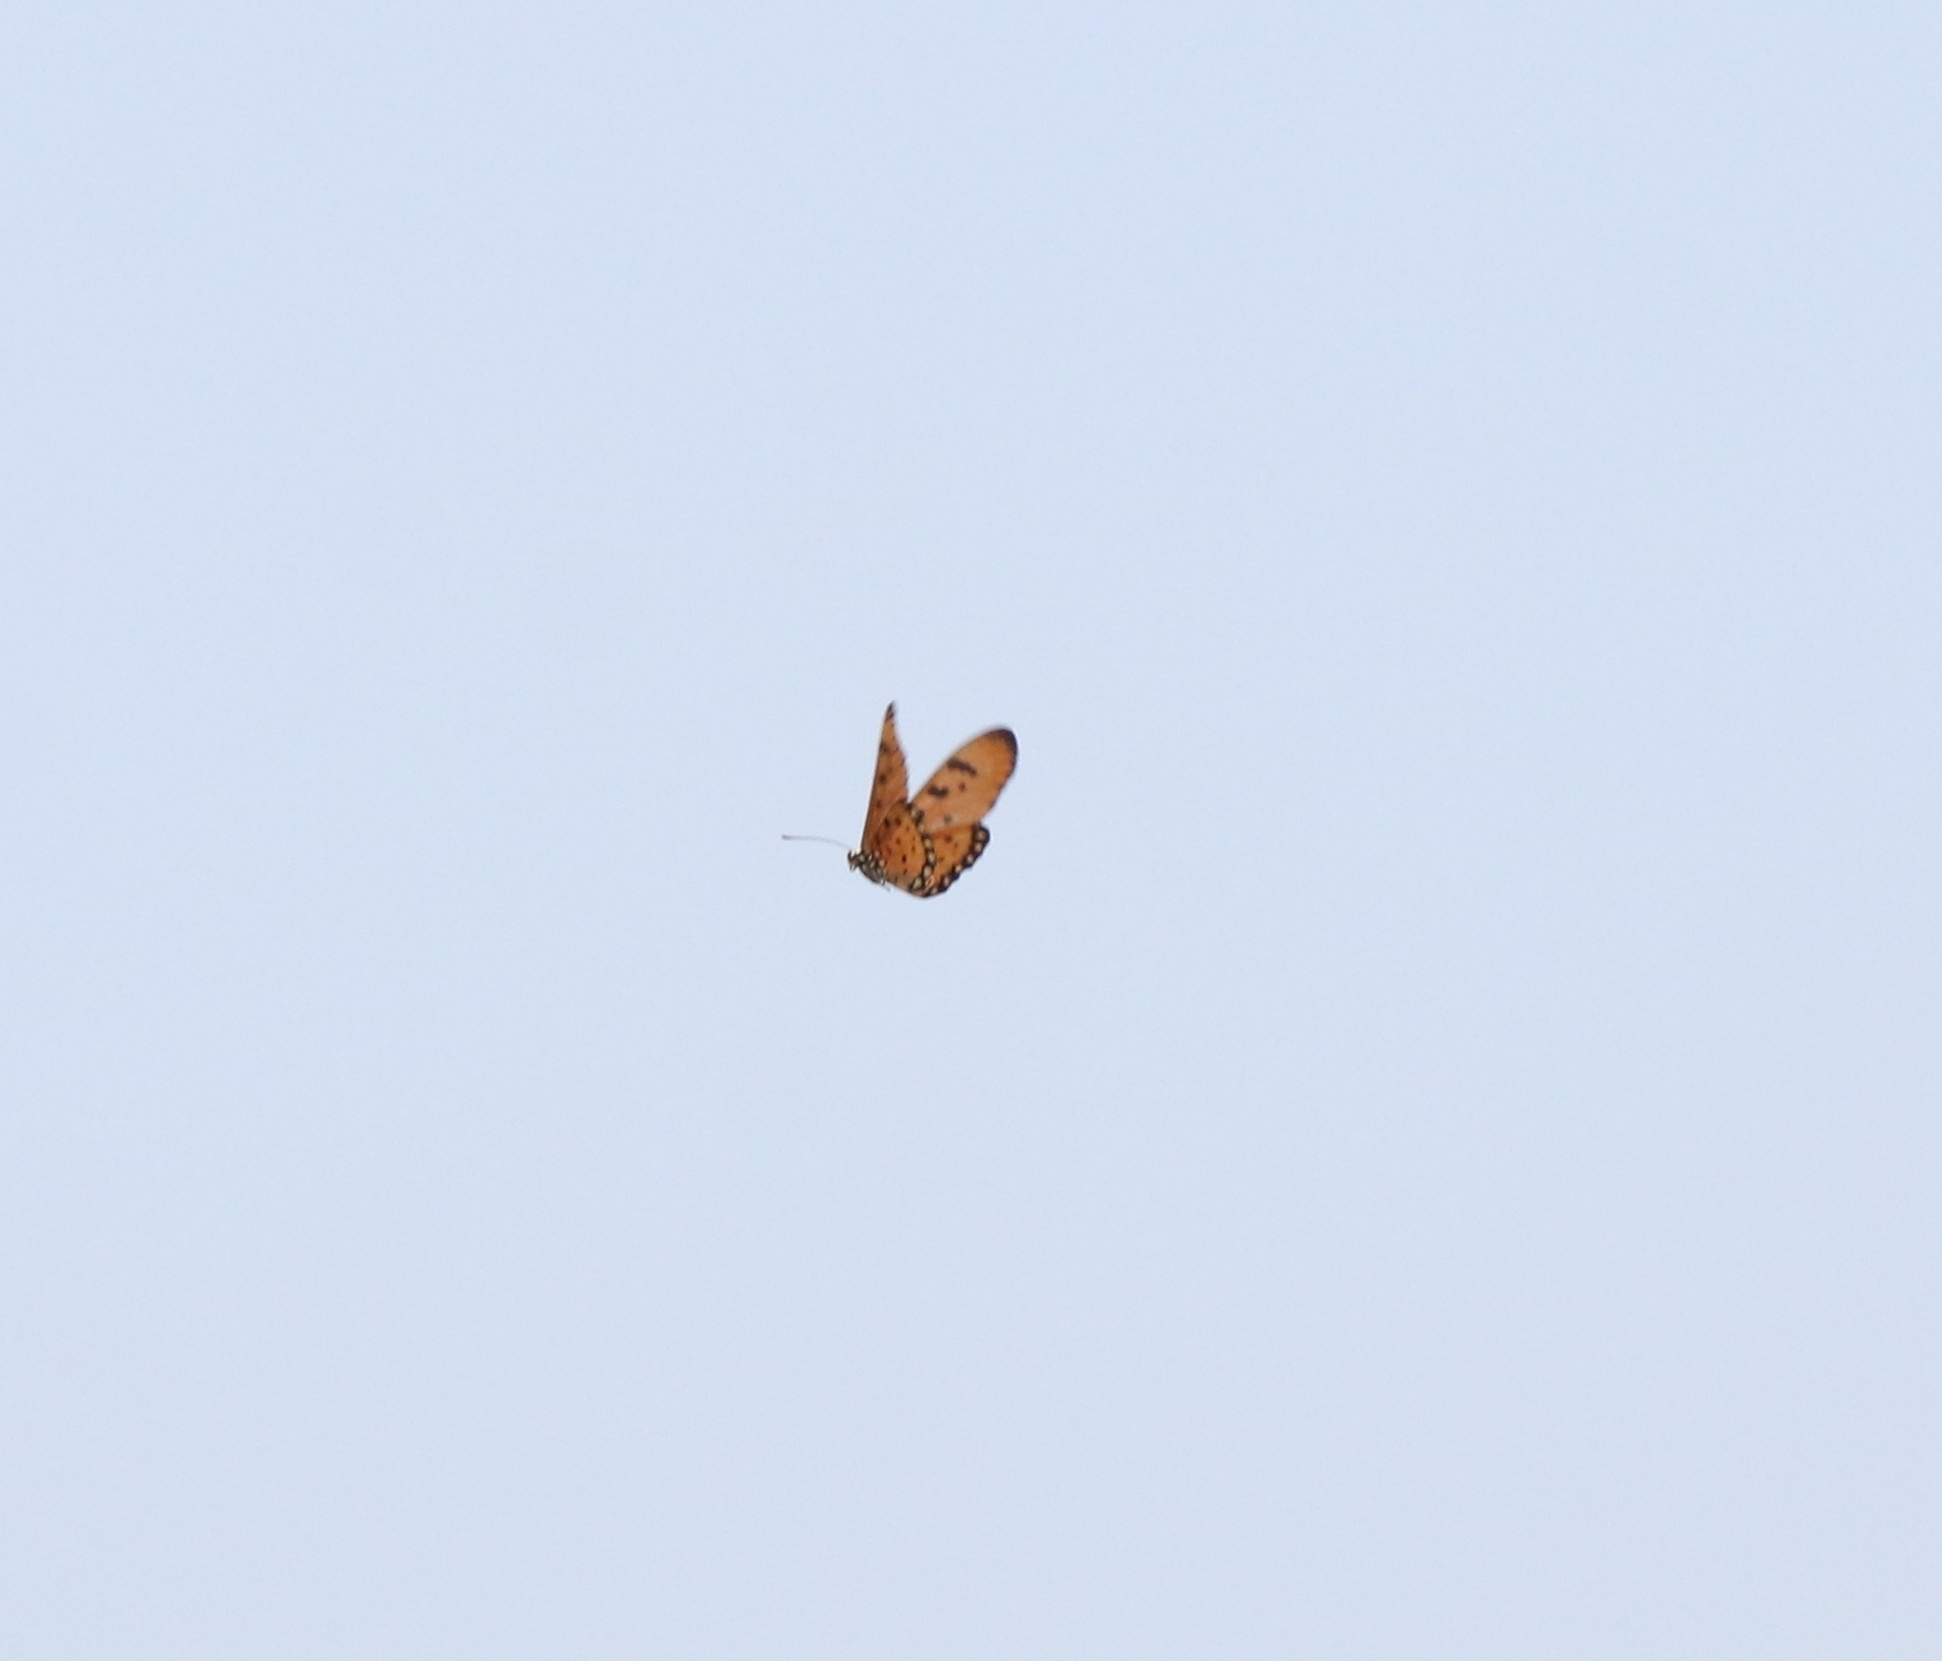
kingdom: Animalia
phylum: Arthropoda
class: Insecta
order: Lepidoptera
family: Nymphalidae
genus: Acraea
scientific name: Acraea terpsicore
